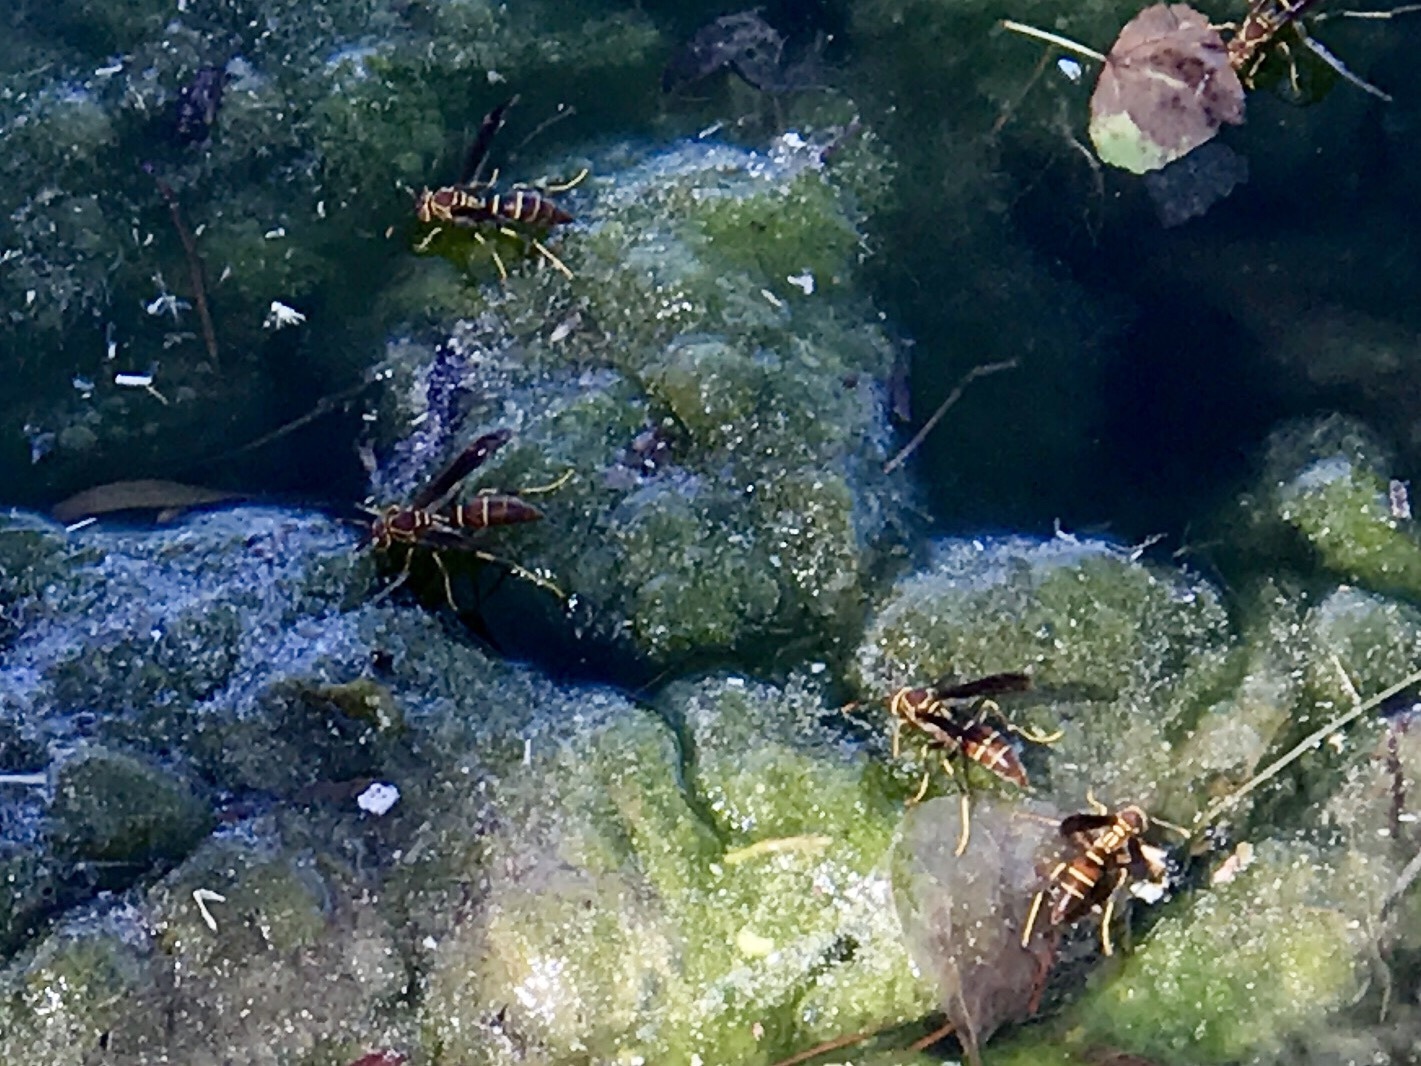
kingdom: Animalia
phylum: Arthropoda
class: Insecta
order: Hymenoptera
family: Eumenidae
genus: Polistes
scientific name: Polistes arizonensis
